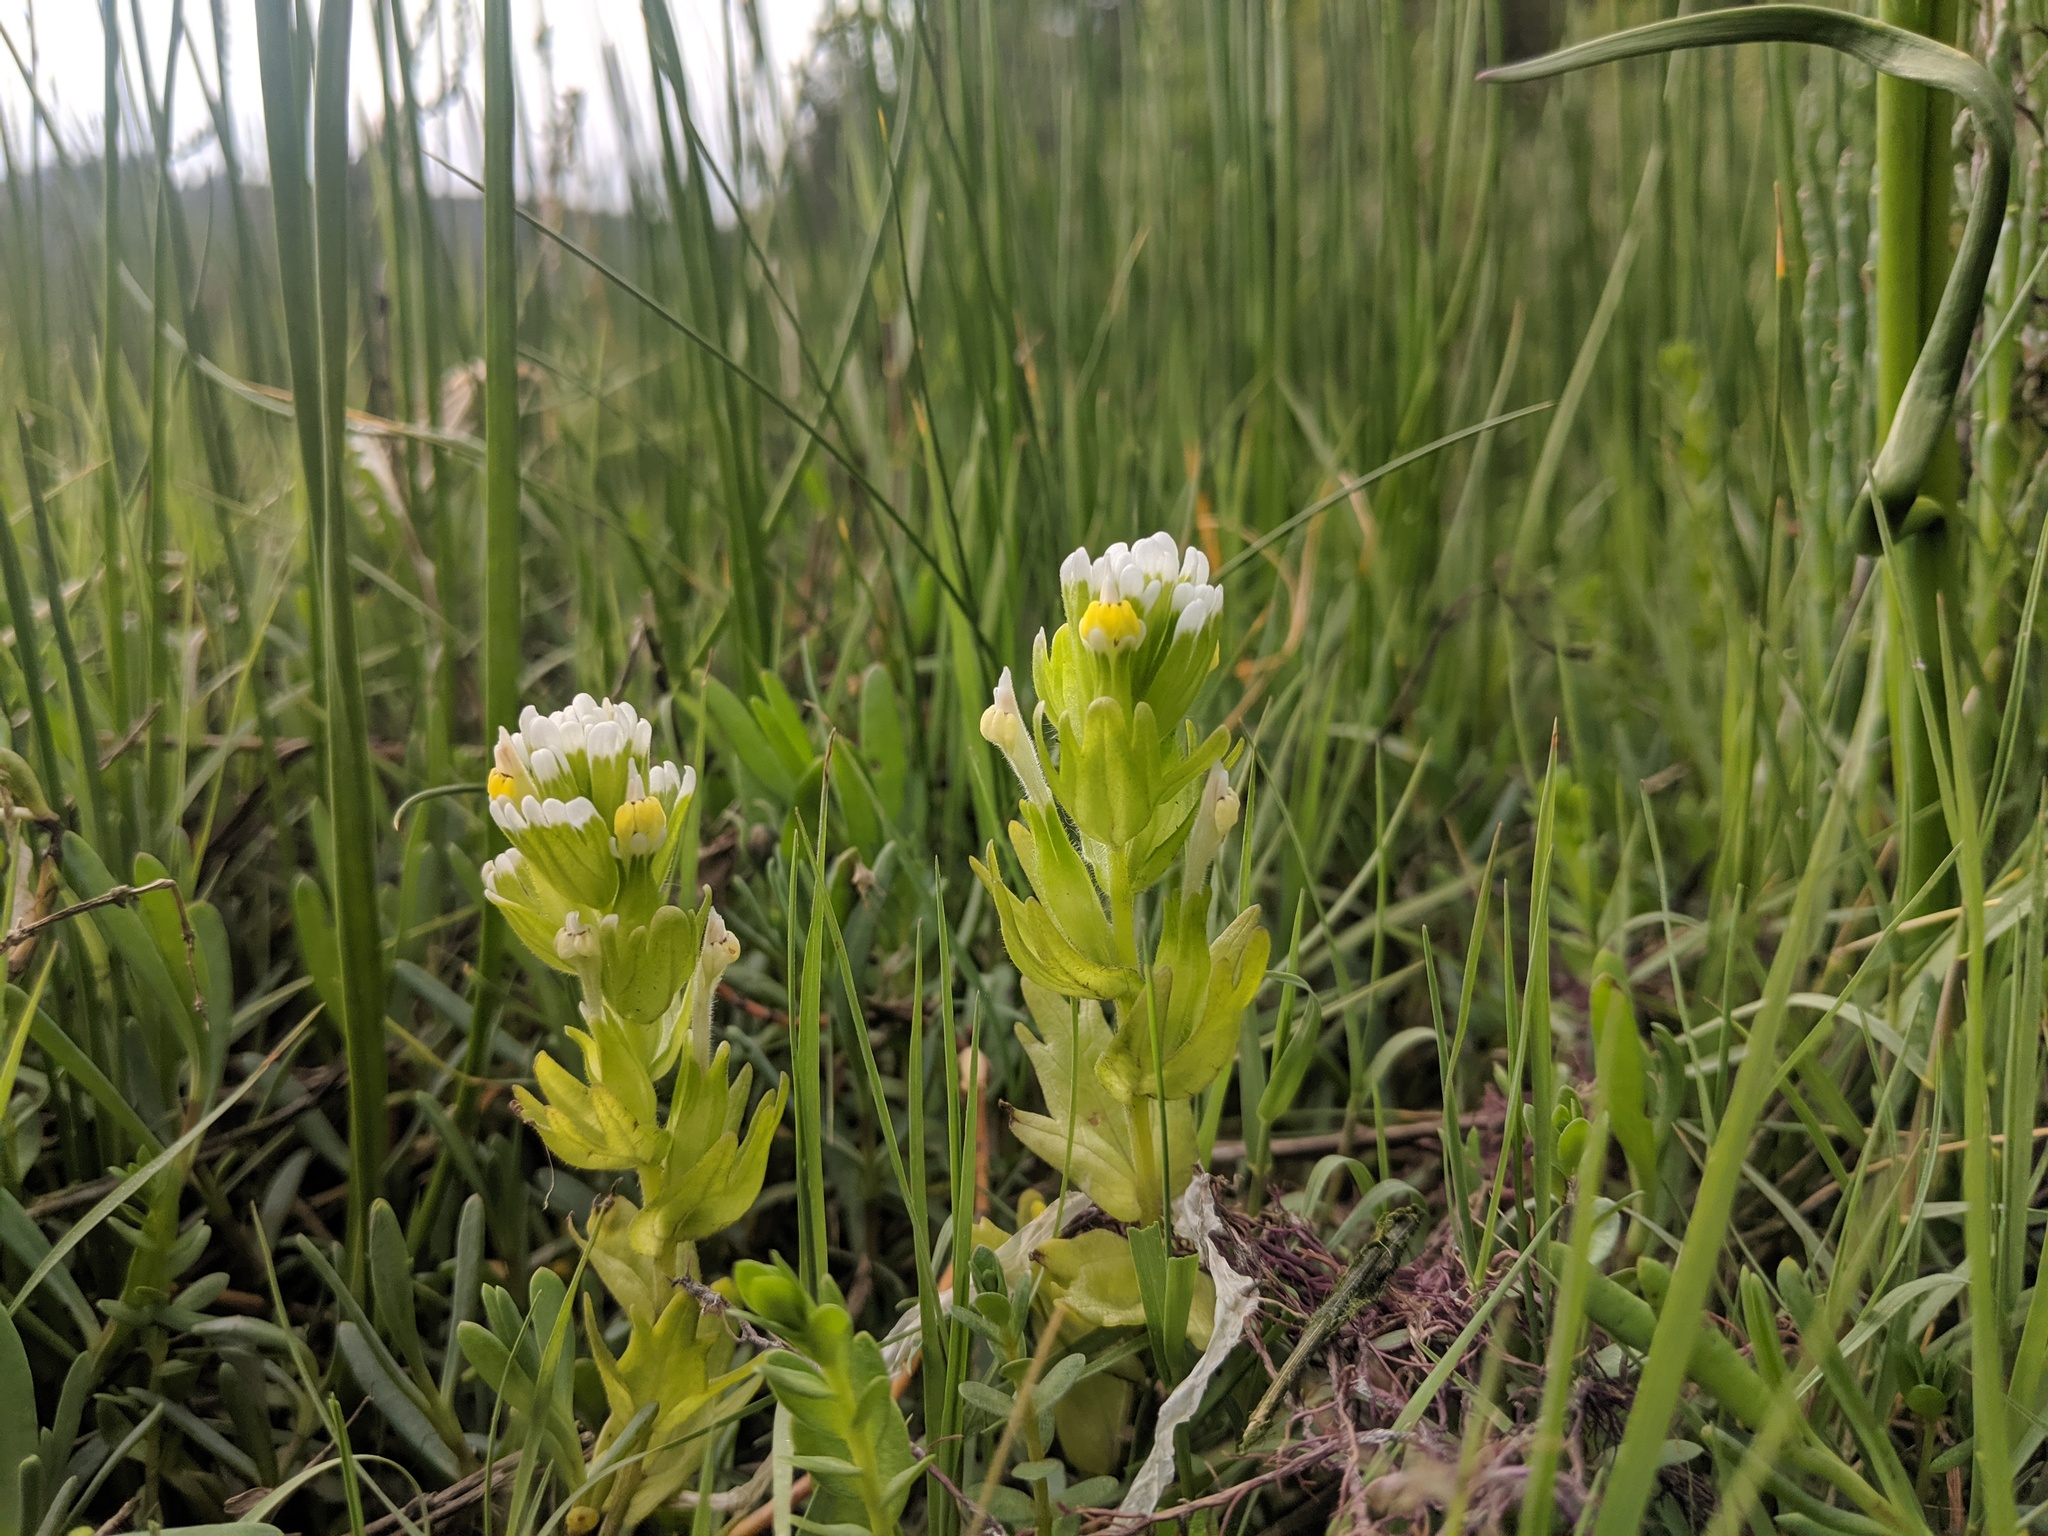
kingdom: Plantae
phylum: Tracheophyta
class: Magnoliopsida
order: Lamiales
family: Orobanchaceae
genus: Castilleja
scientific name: Castilleja ambigua
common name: Johnny-nip
